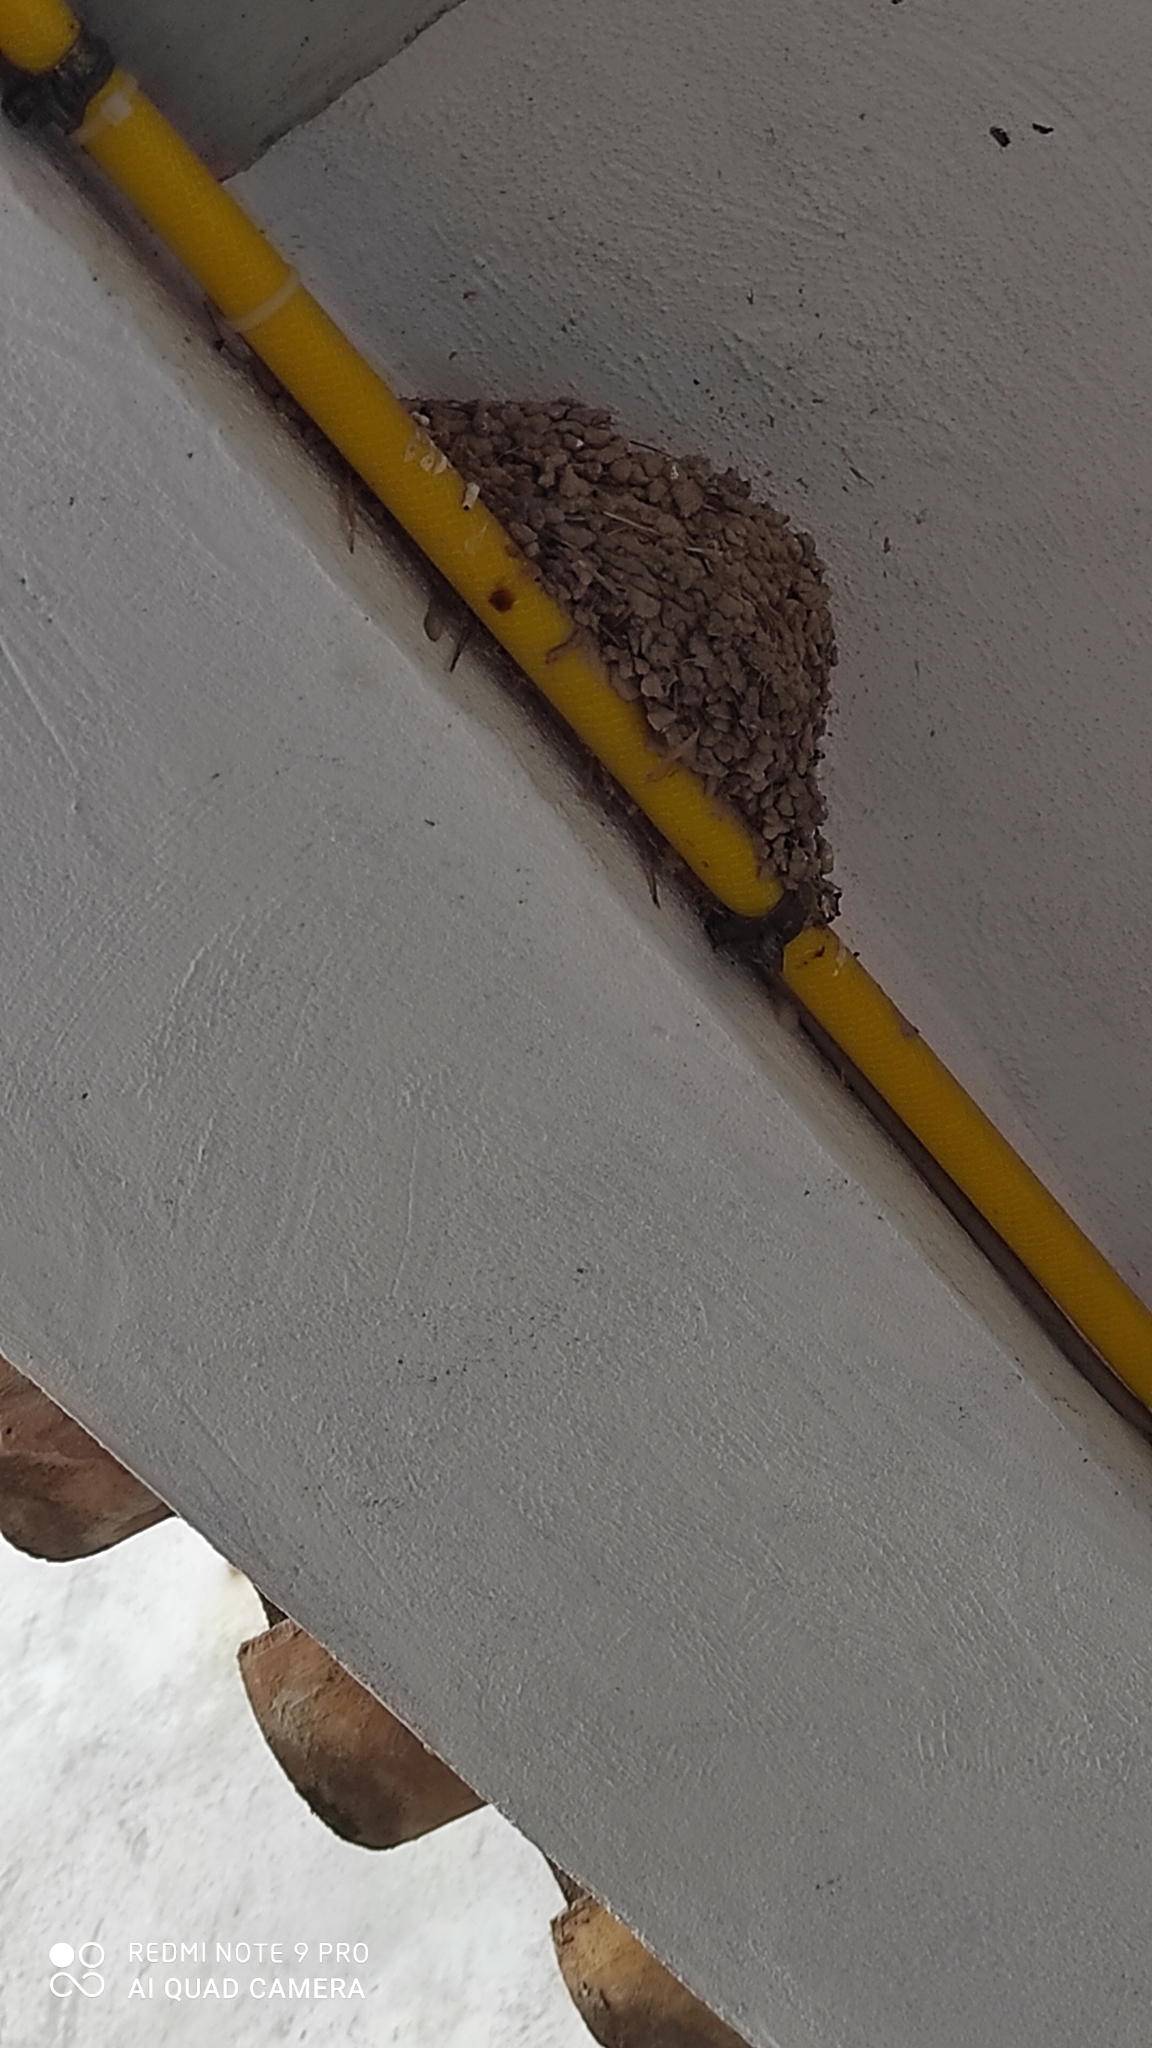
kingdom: Animalia
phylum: Chordata
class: Aves
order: Passeriformes
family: Hirundinidae
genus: Hirundo
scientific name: Hirundo rustica
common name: Barn swallow
